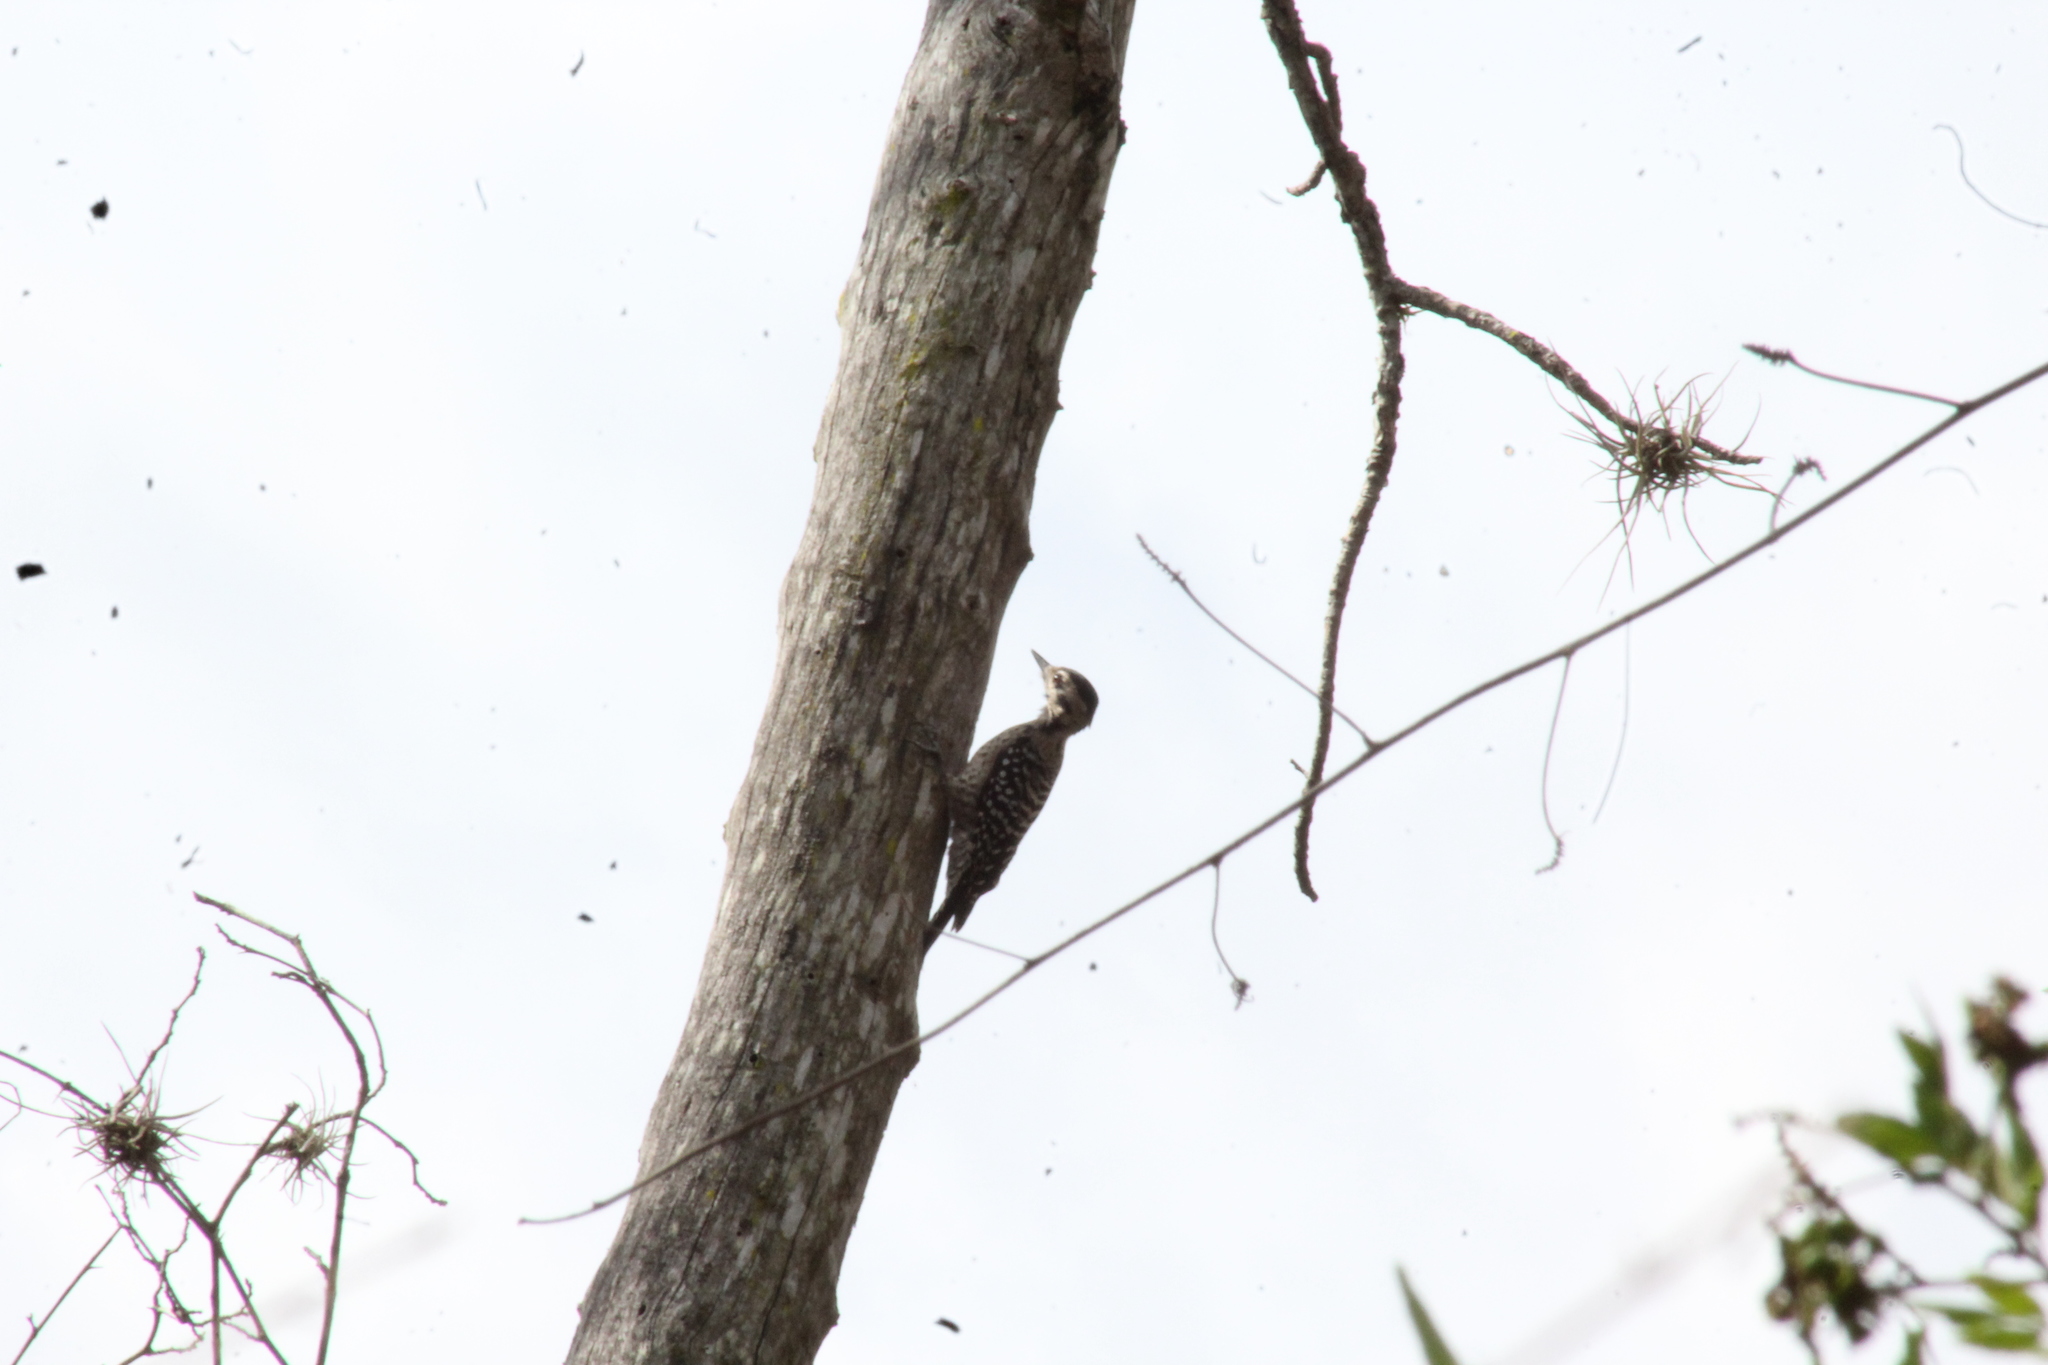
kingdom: Animalia
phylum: Chordata
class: Aves
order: Piciformes
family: Picidae
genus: Dryobates
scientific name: Dryobates scalaris
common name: Ladder-backed woodpecker
